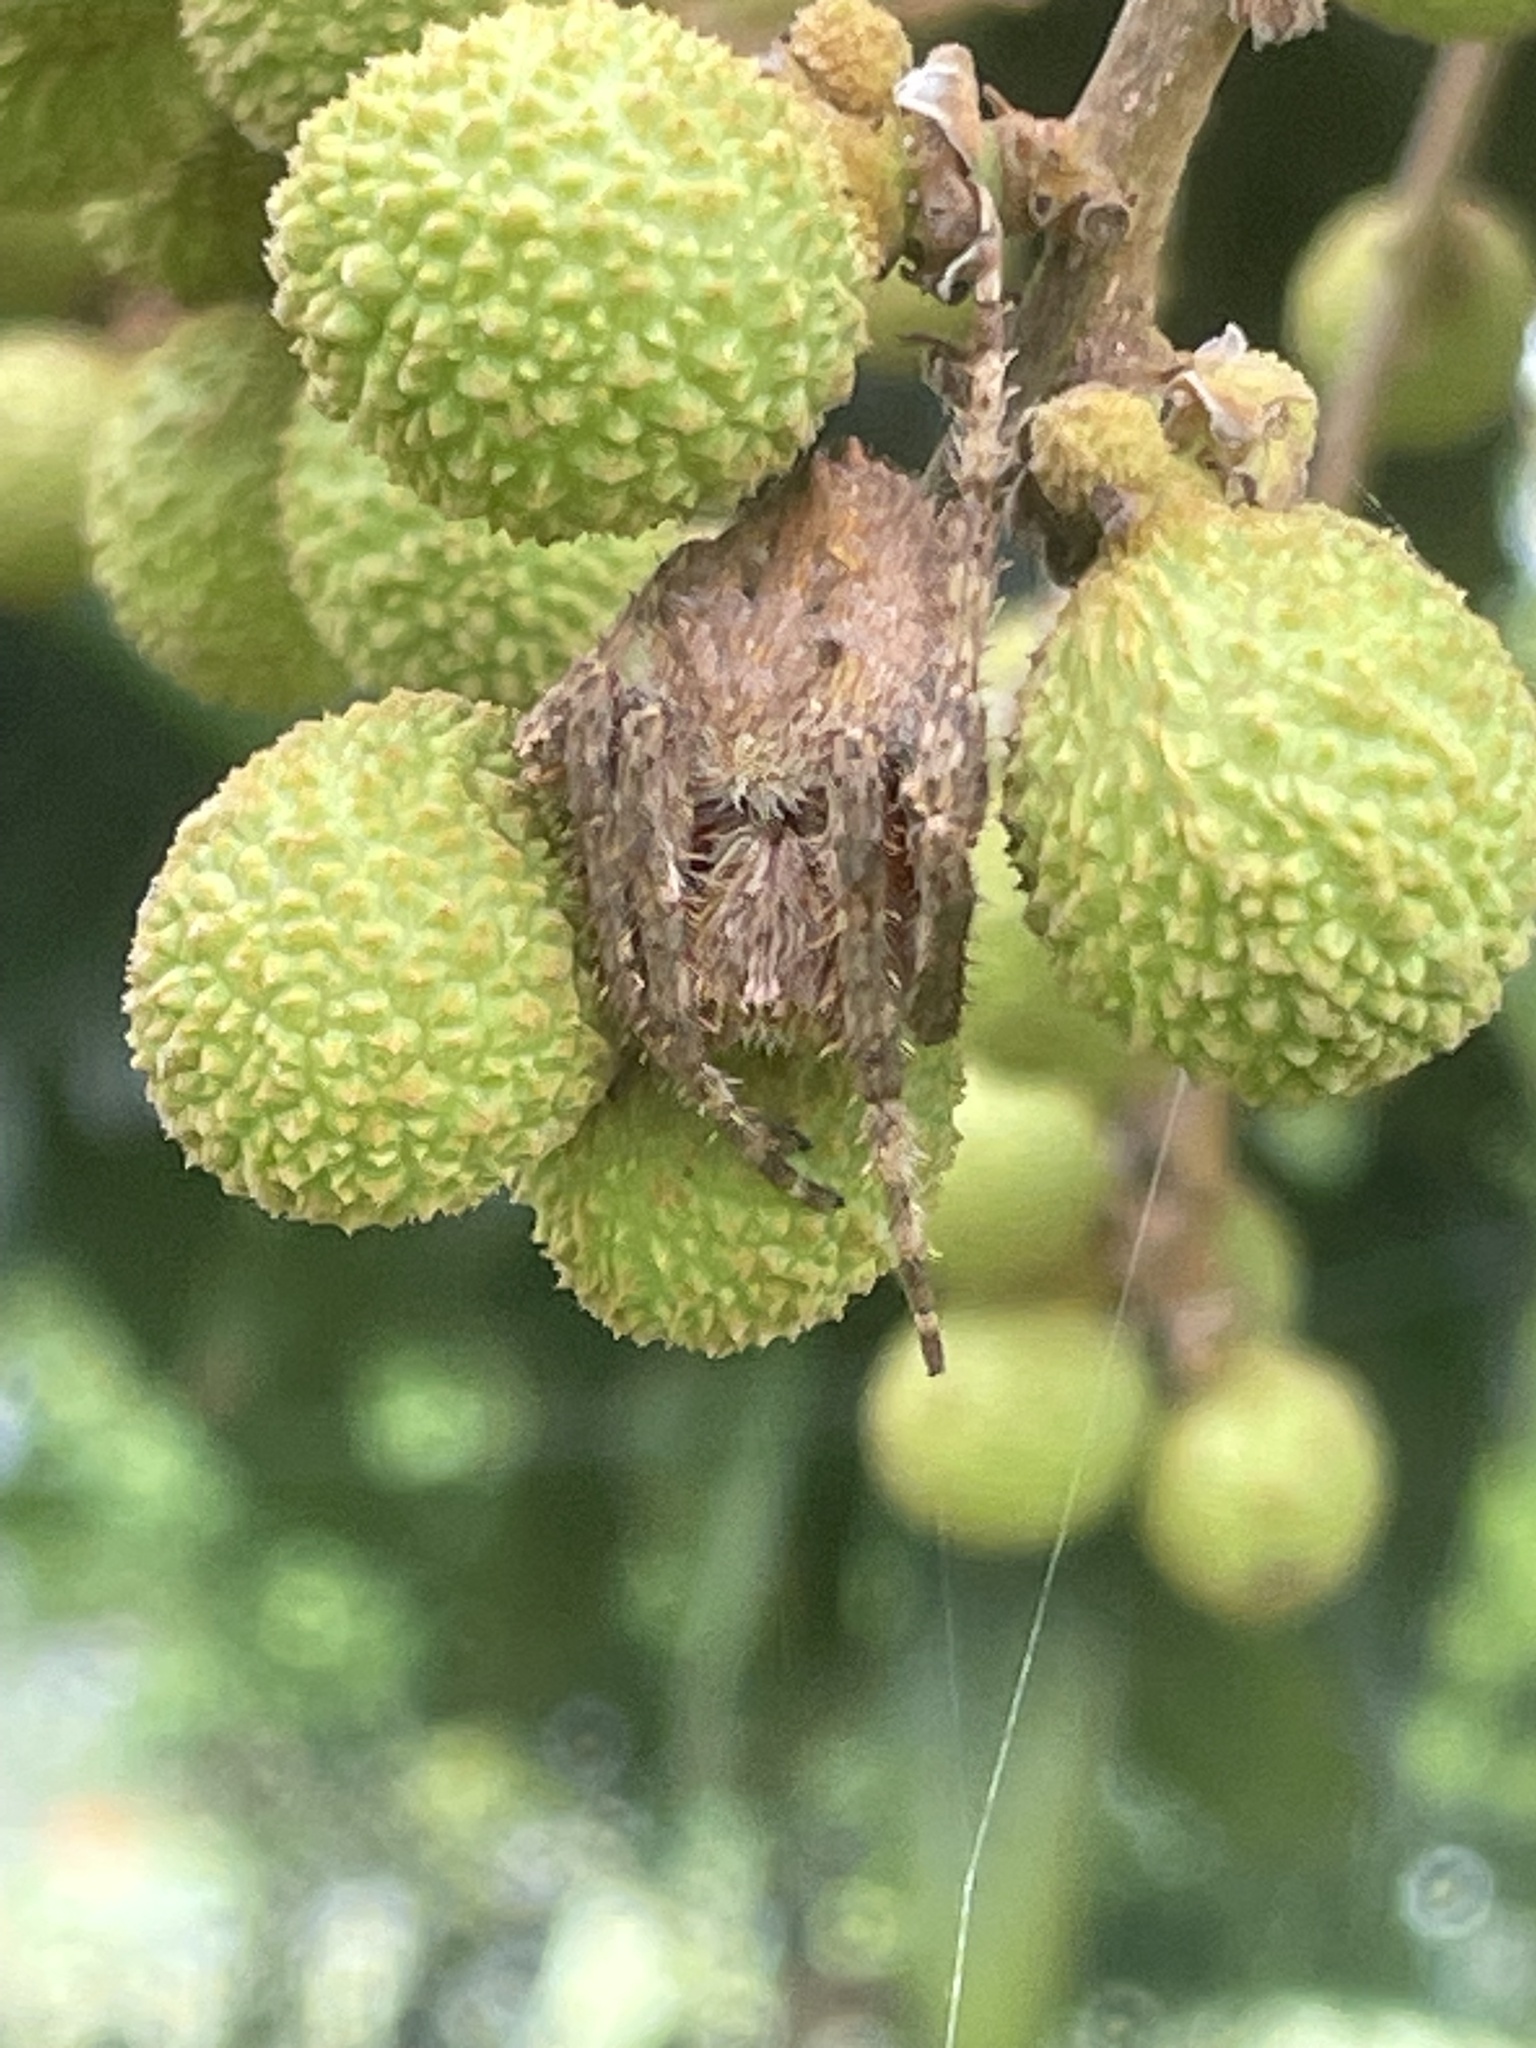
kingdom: Animalia
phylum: Arthropoda
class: Arachnida
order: Araneae
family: Araneidae
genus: Hortophora
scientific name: Hortophora biapicata
